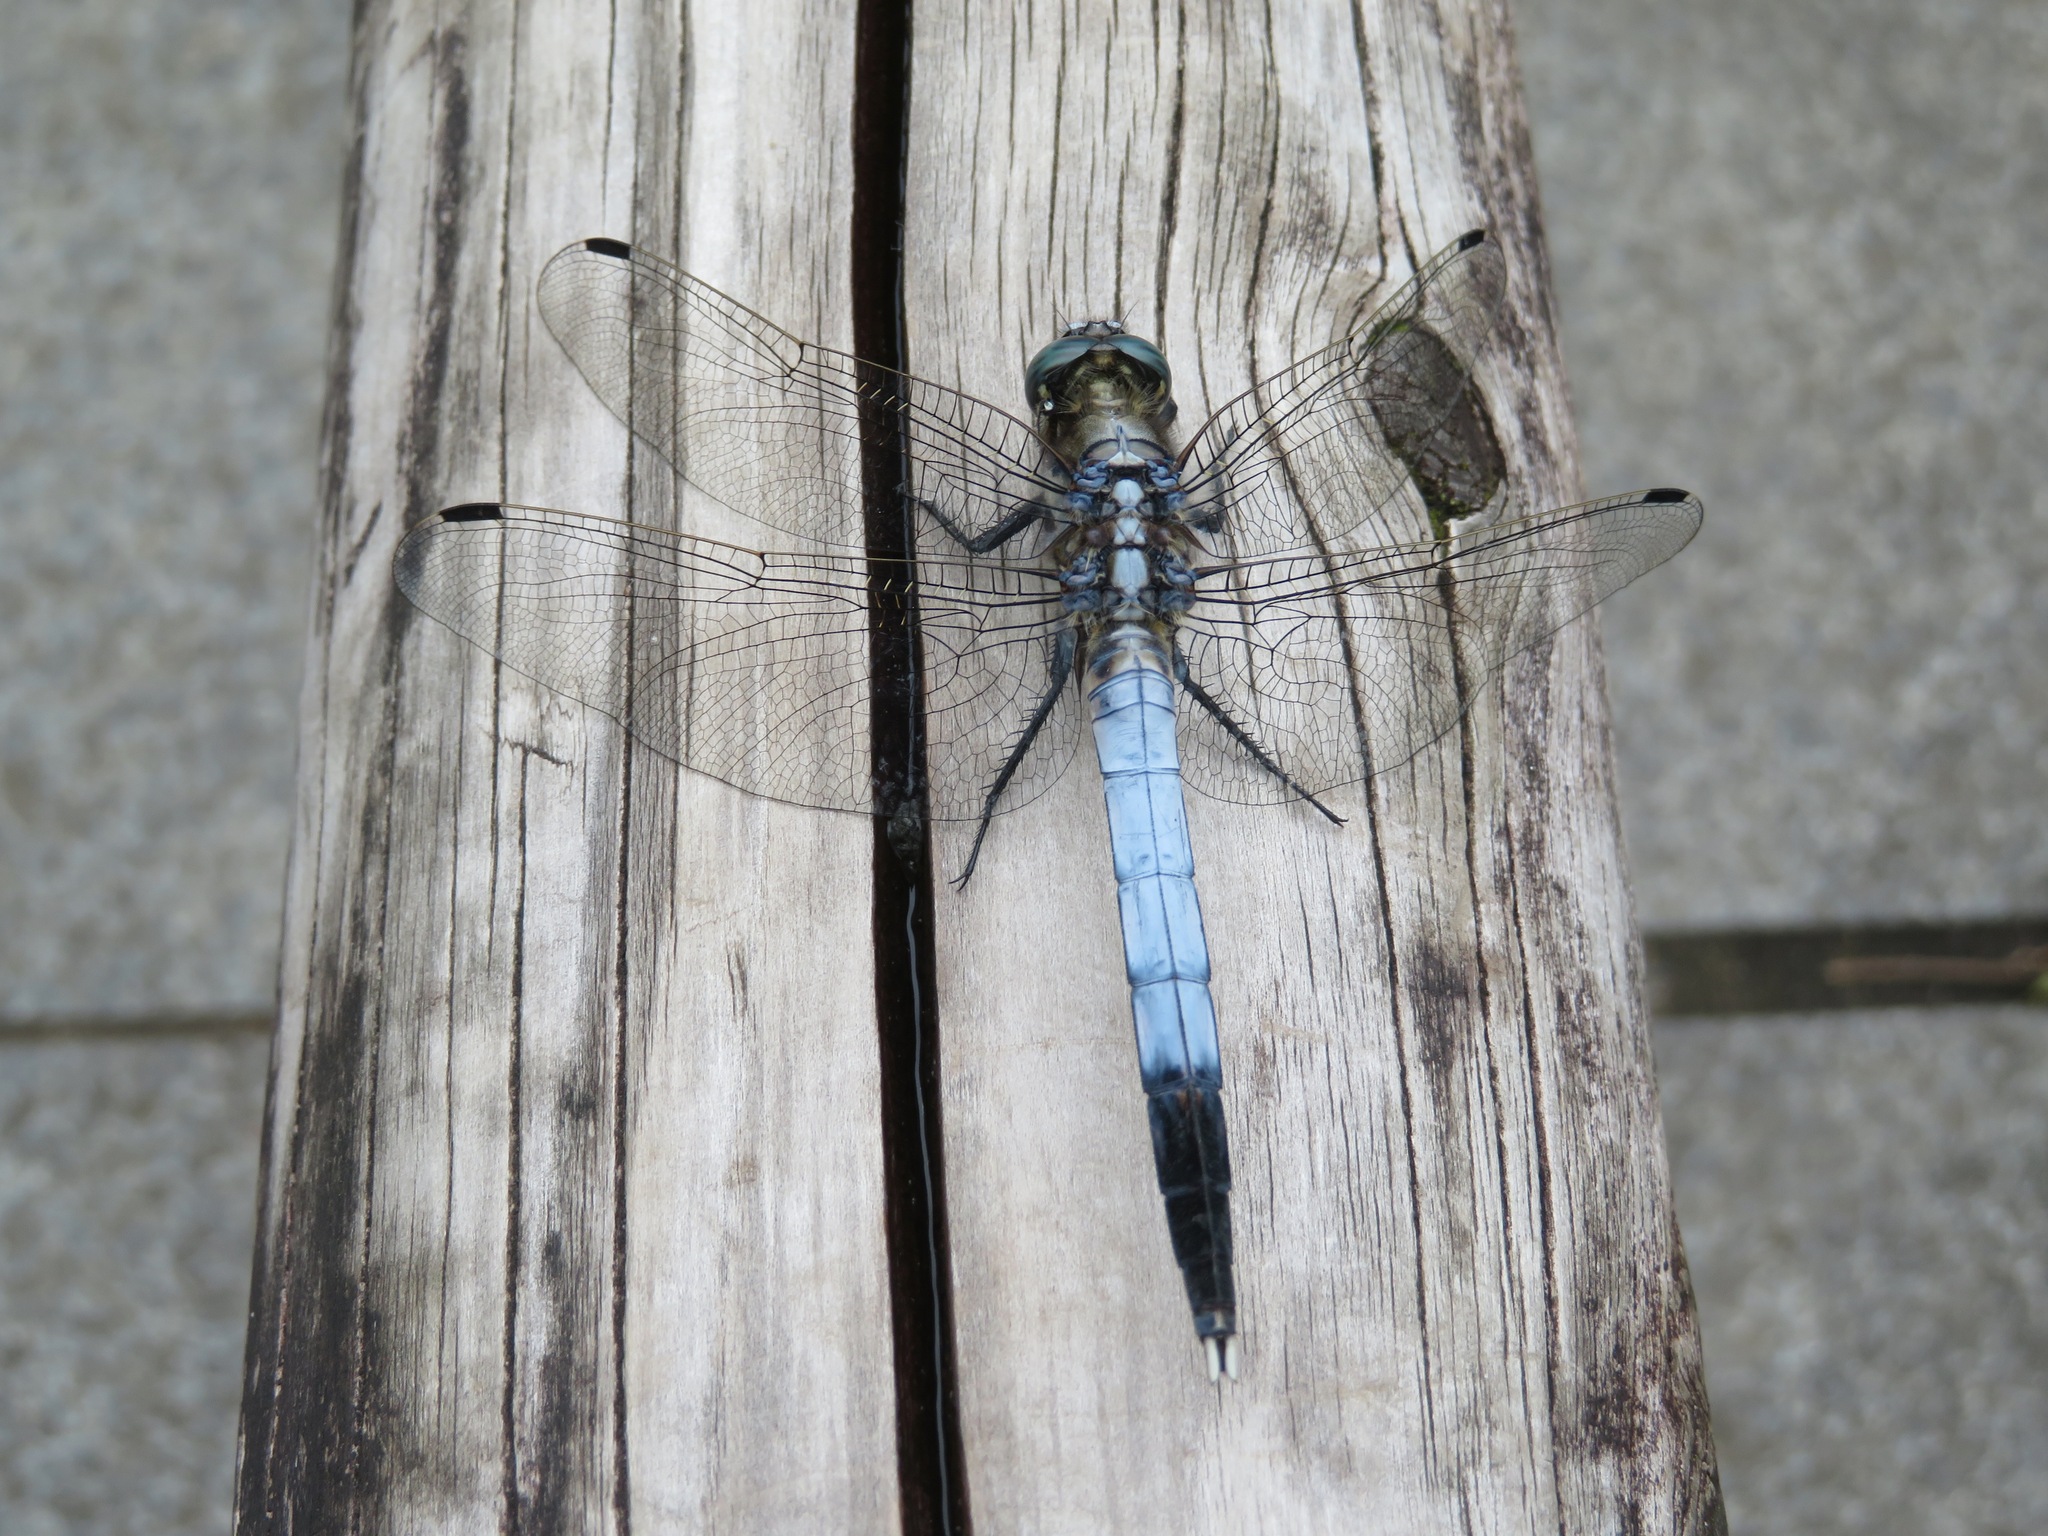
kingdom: Animalia
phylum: Arthropoda
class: Insecta
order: Odonata
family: Libellulidae
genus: Orthetrum
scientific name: Orthetrum albistylum
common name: White-tailed skimmer
